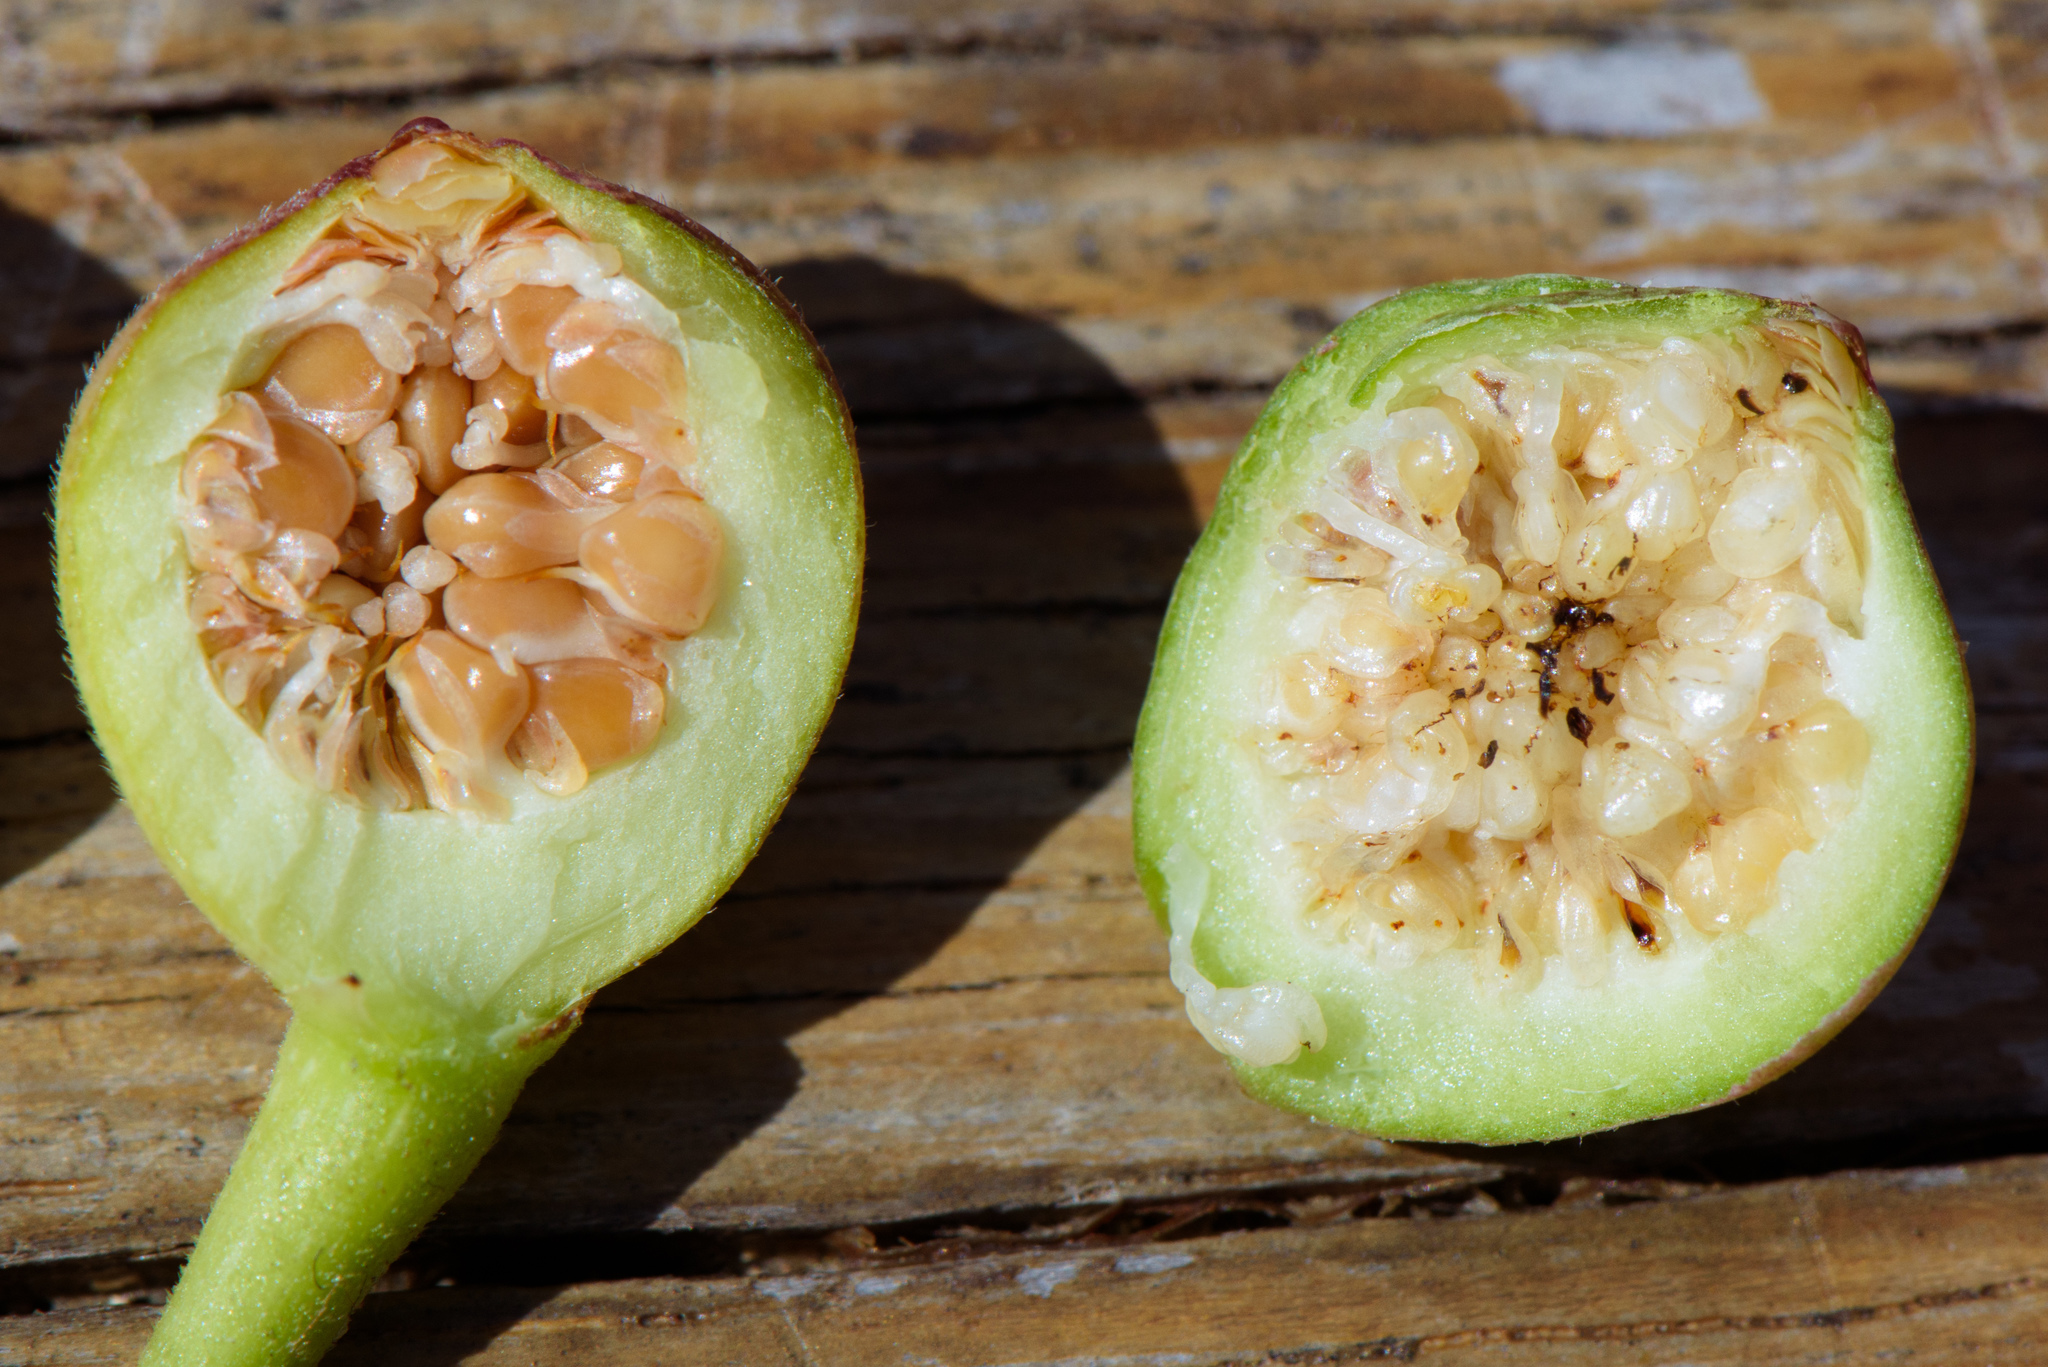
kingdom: Plantae
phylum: Tracheophyta
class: Magnoliopsida
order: Rosales
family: Moraceae
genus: Ficus
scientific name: Ficus pedunculosa
